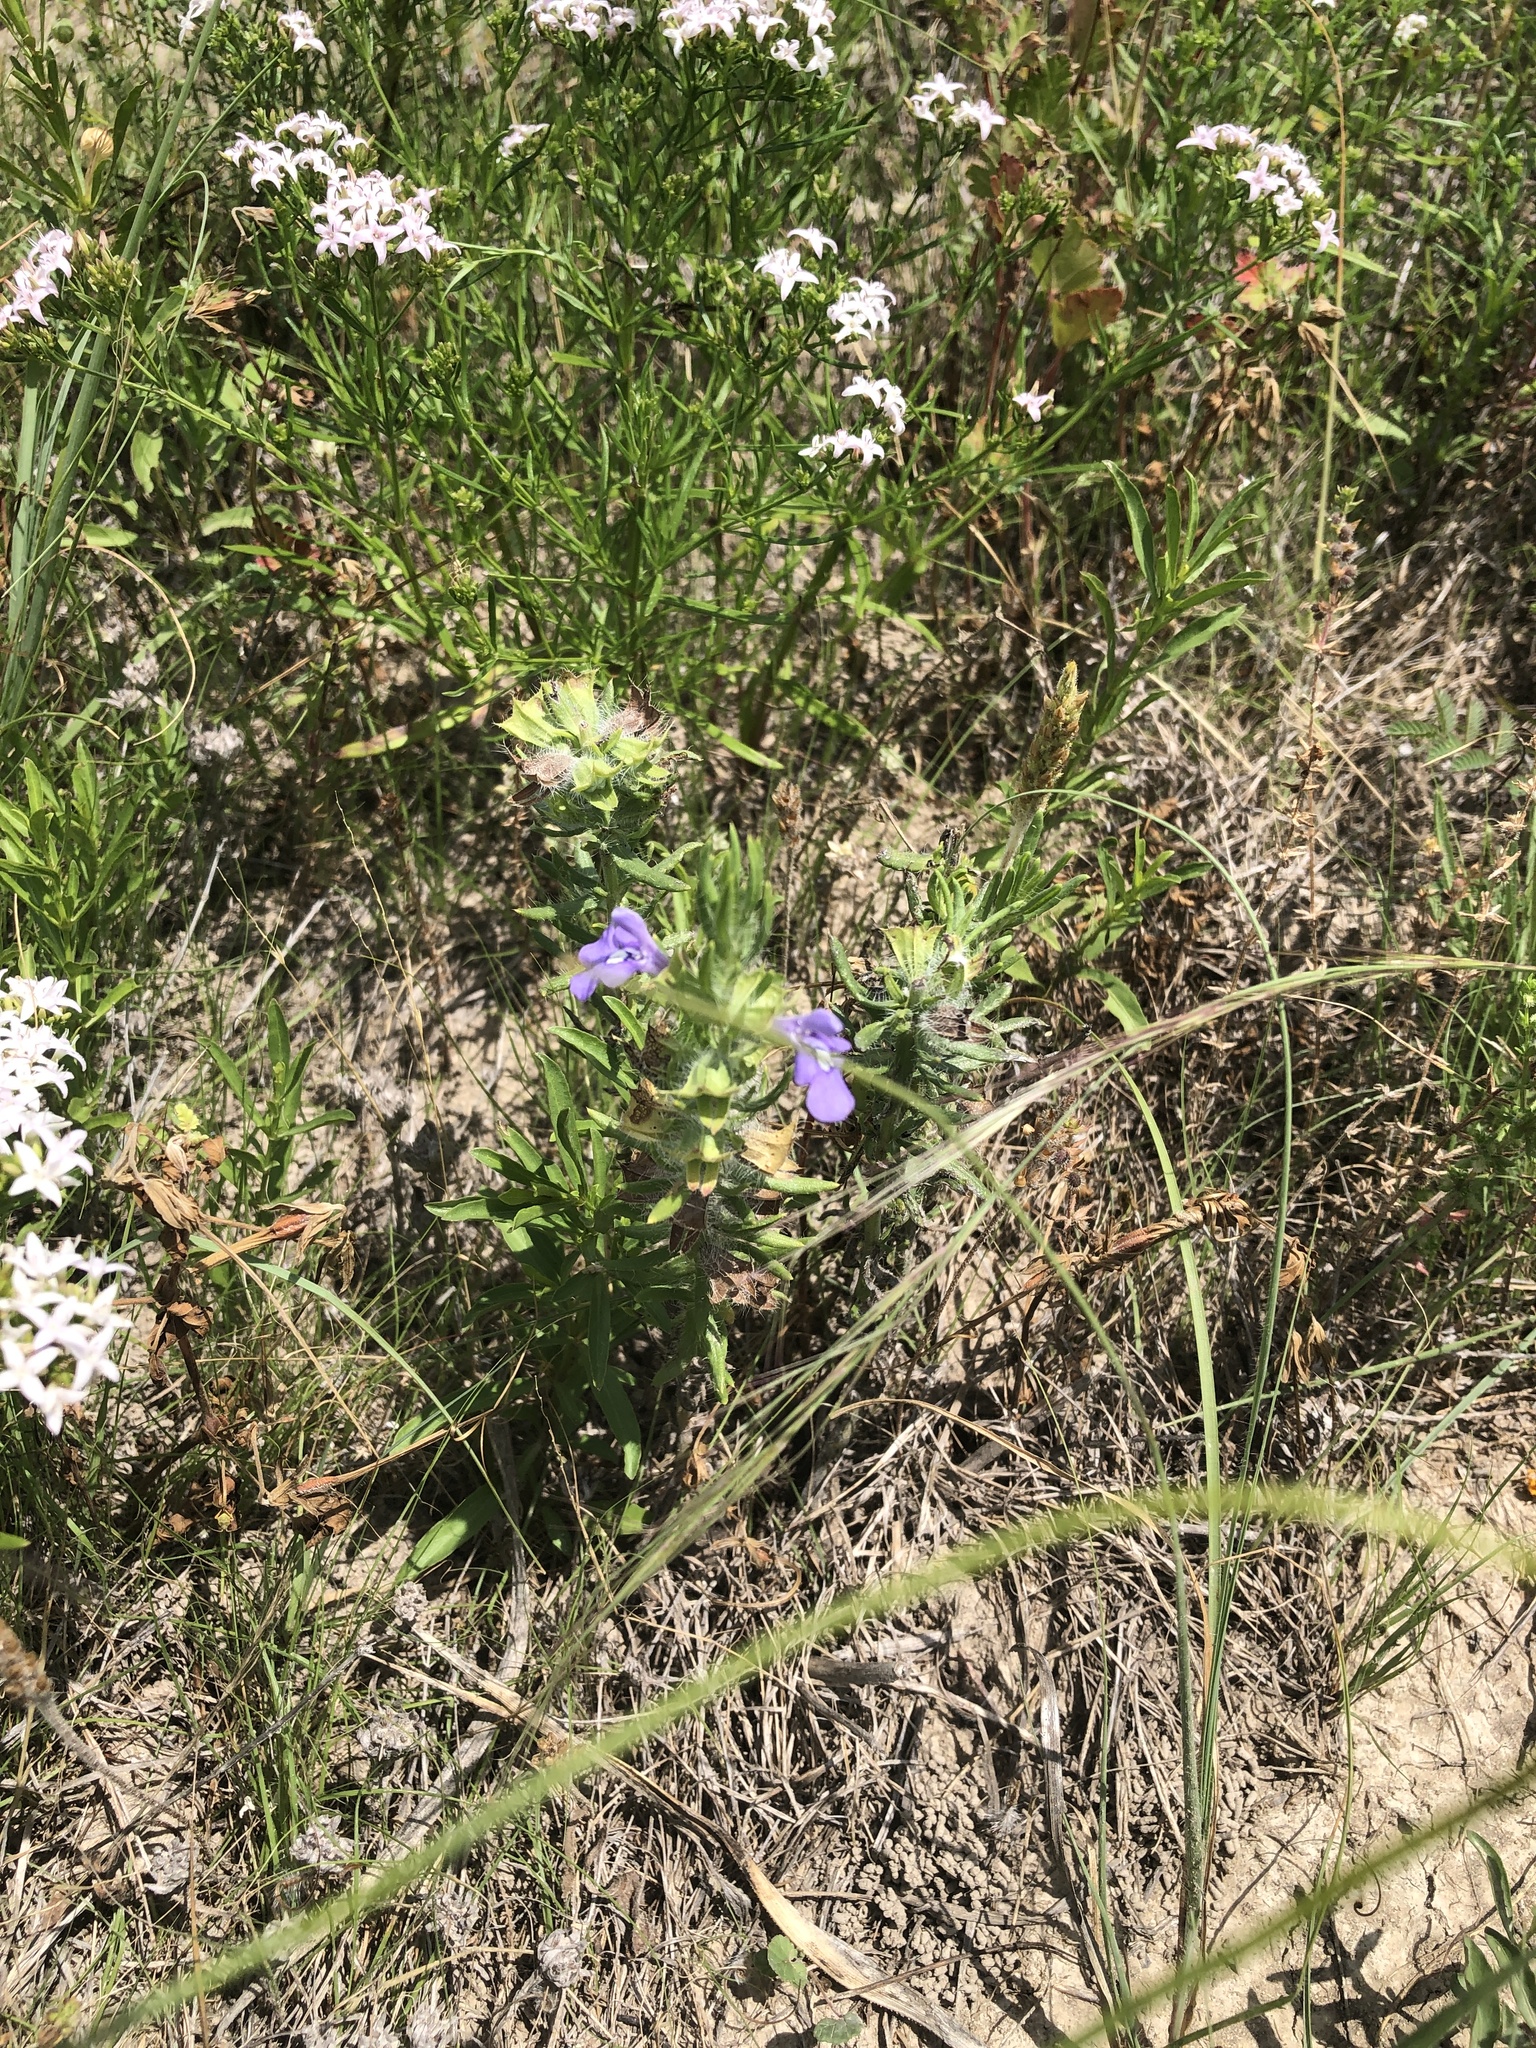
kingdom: Plantae
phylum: Tracheophyta
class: Magnoliopsida
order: Lamiales
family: Lamiaceae
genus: Salvia
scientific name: Salvia texana
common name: Texas sage
